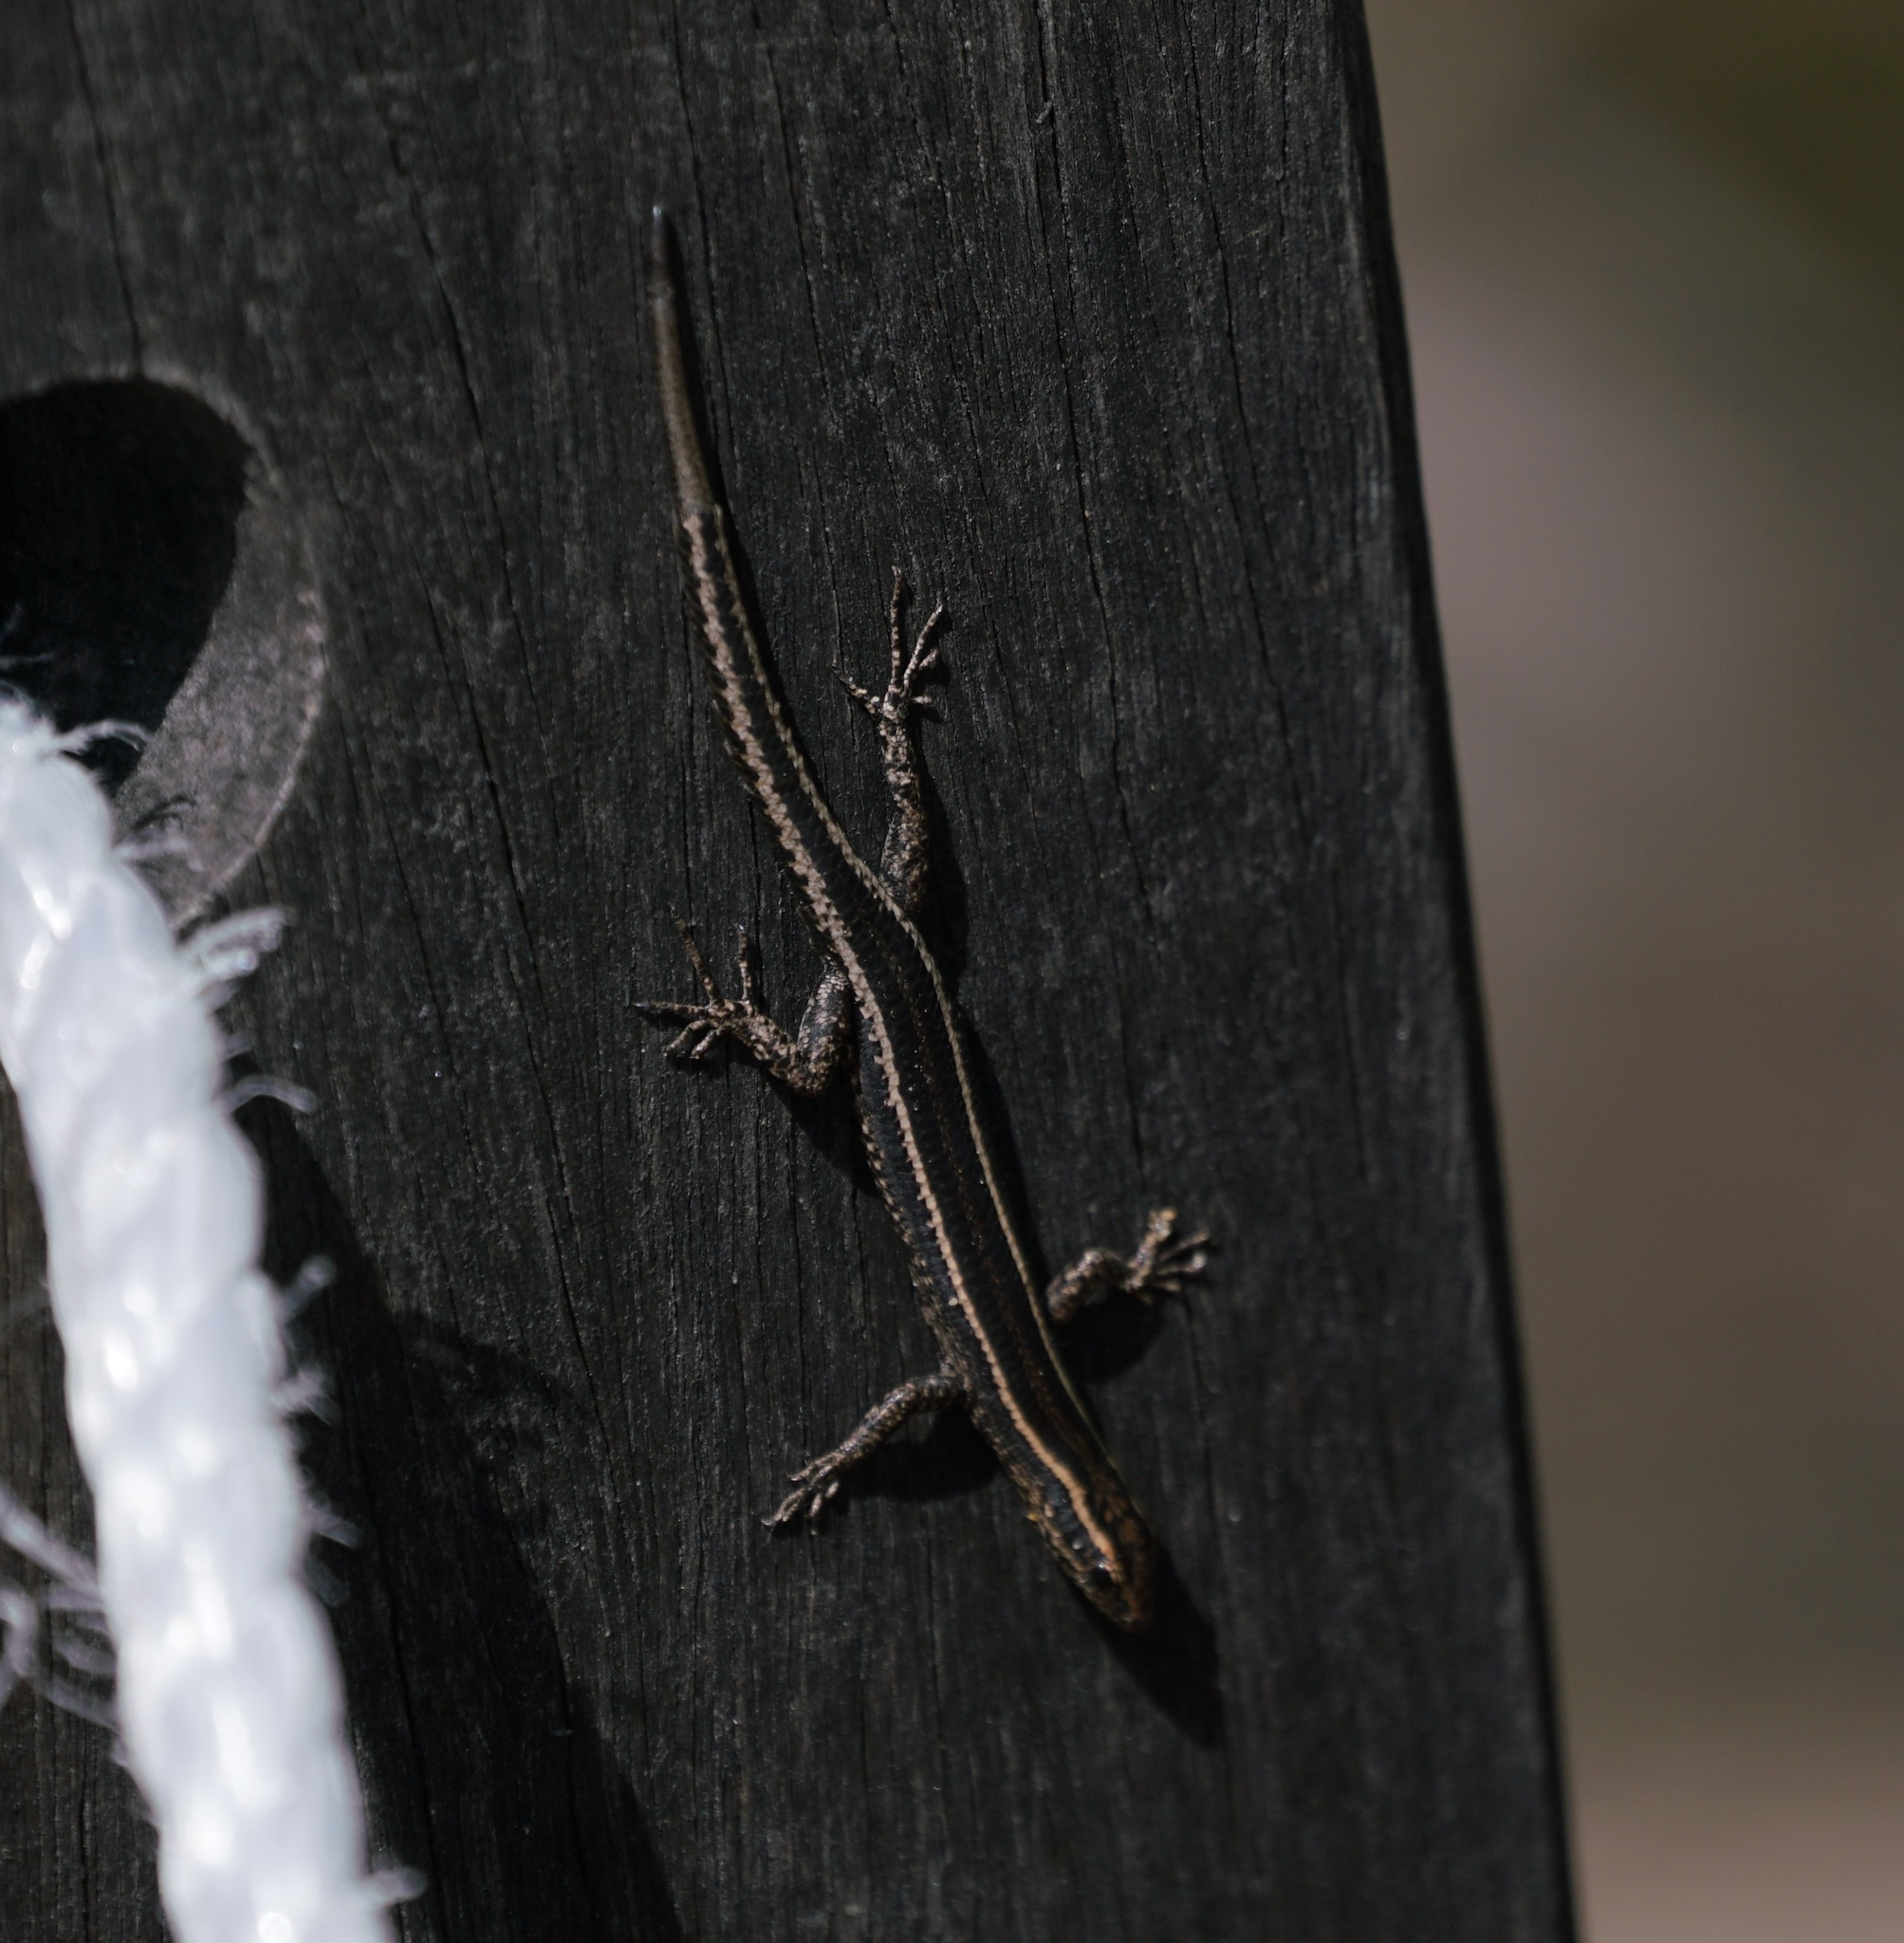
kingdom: Animalia
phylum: Chordata
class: Squamata
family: Scincidae
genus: Cryptoblepharus
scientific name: Cryptoblepharus pulcher
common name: Elegant snake-eyed skink
